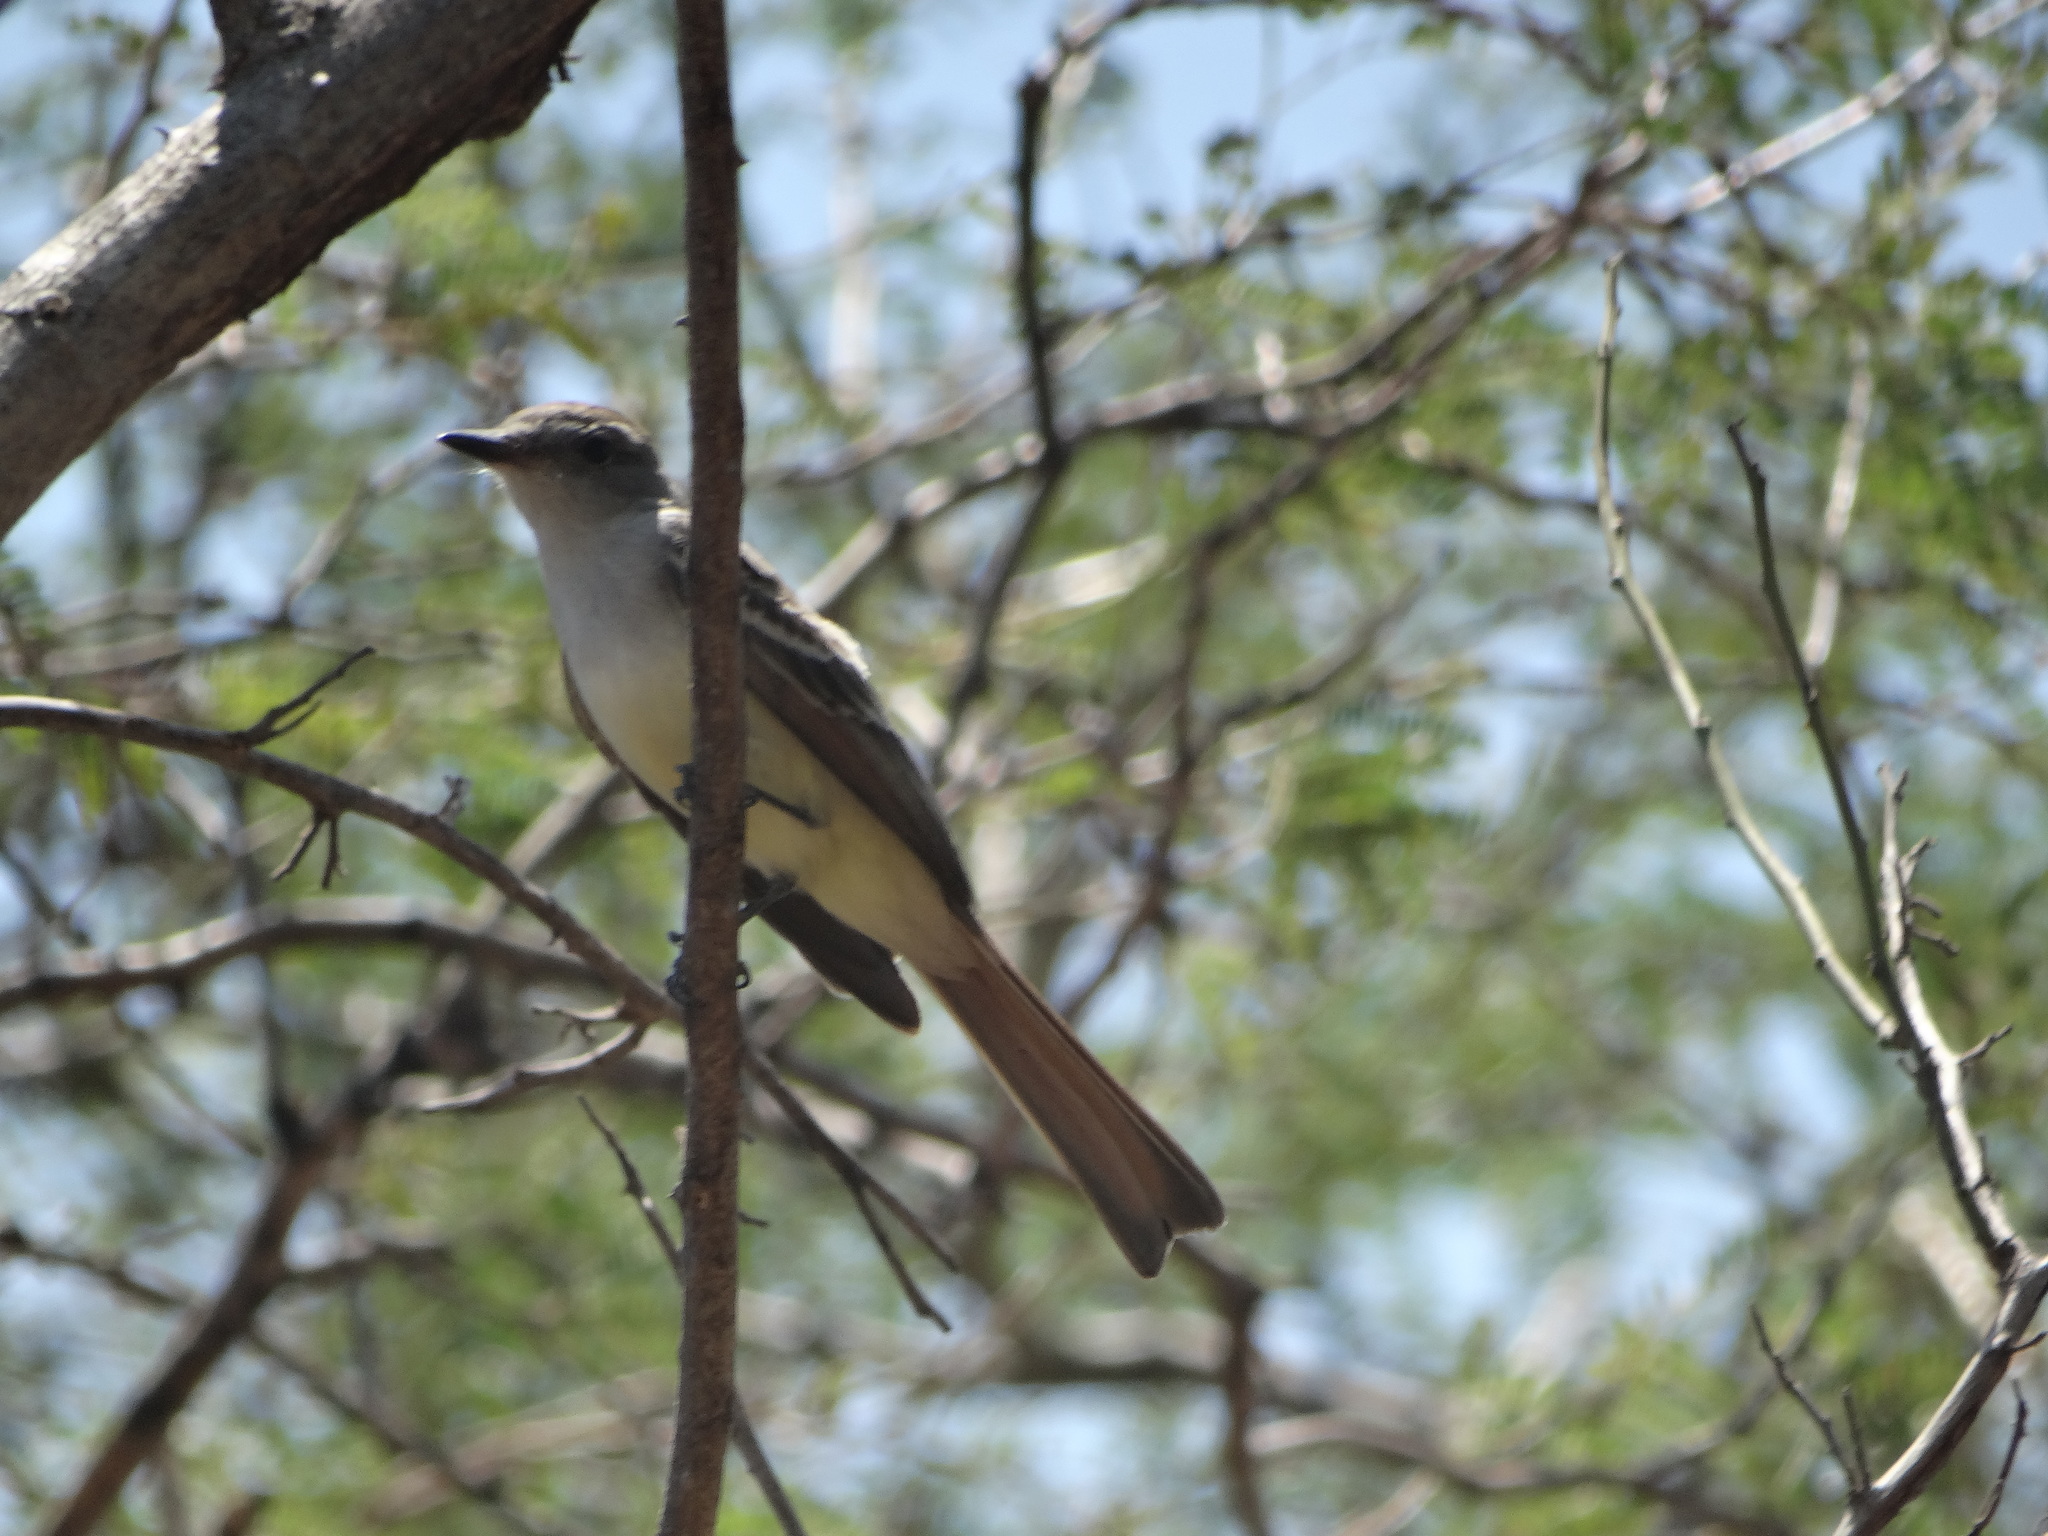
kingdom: Animalia
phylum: Chordata
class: Aves
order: Passeriformes
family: Tyrannidae
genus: Myiarchus
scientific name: Myiarchus cinerascens
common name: Ash-throated flycatcher
